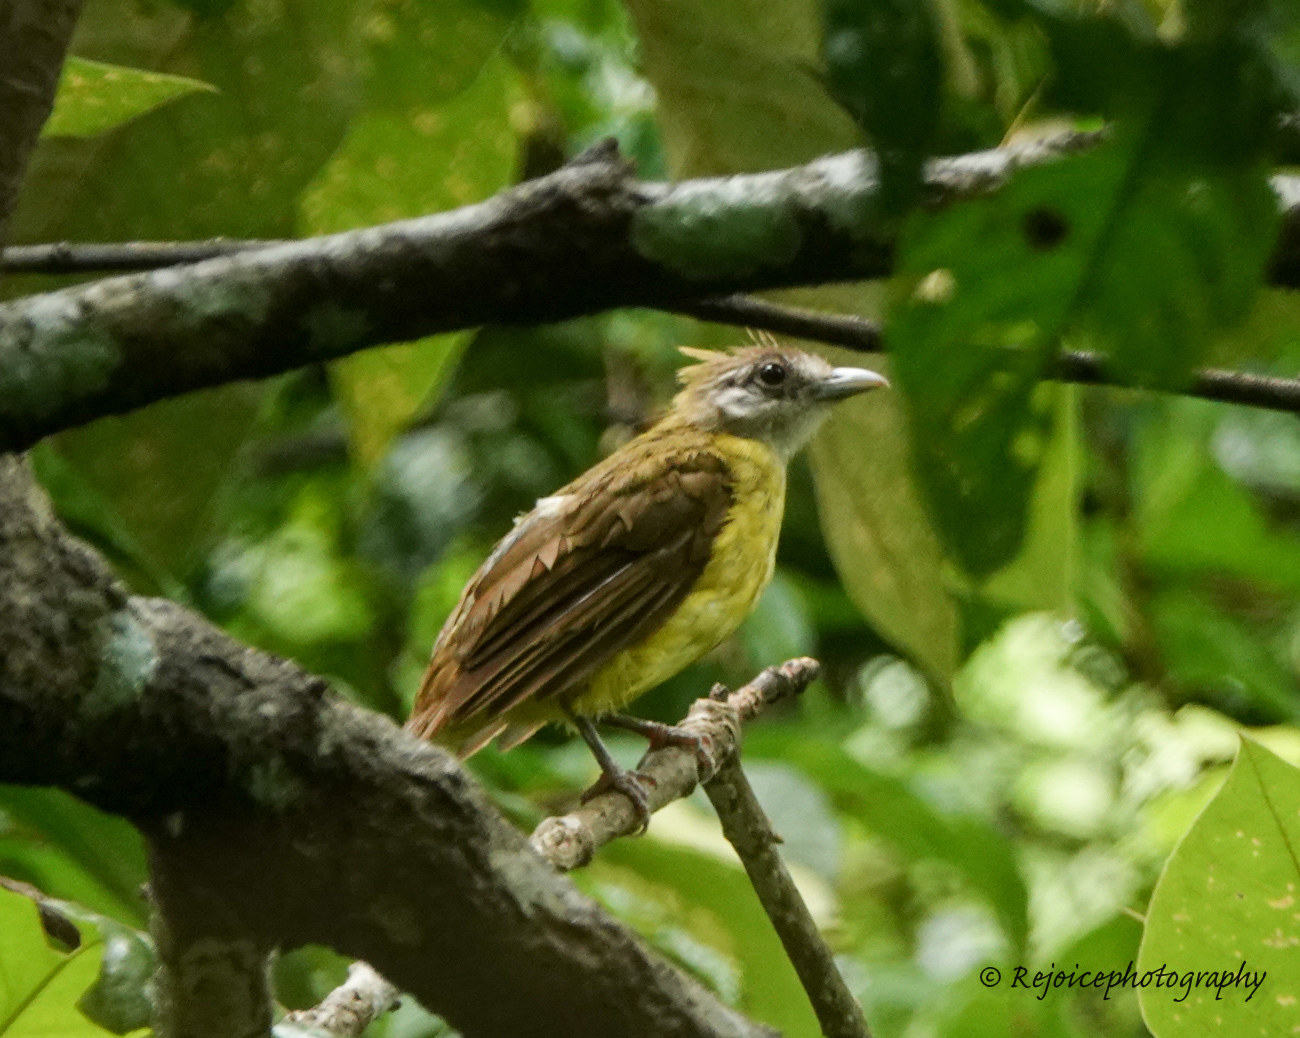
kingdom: Animalia
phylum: Chordata
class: Aves
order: Passeriformes
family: Pycnonotidae
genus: Alophoixus
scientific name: Alophoixus flaveolus
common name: White-throated bulbul
